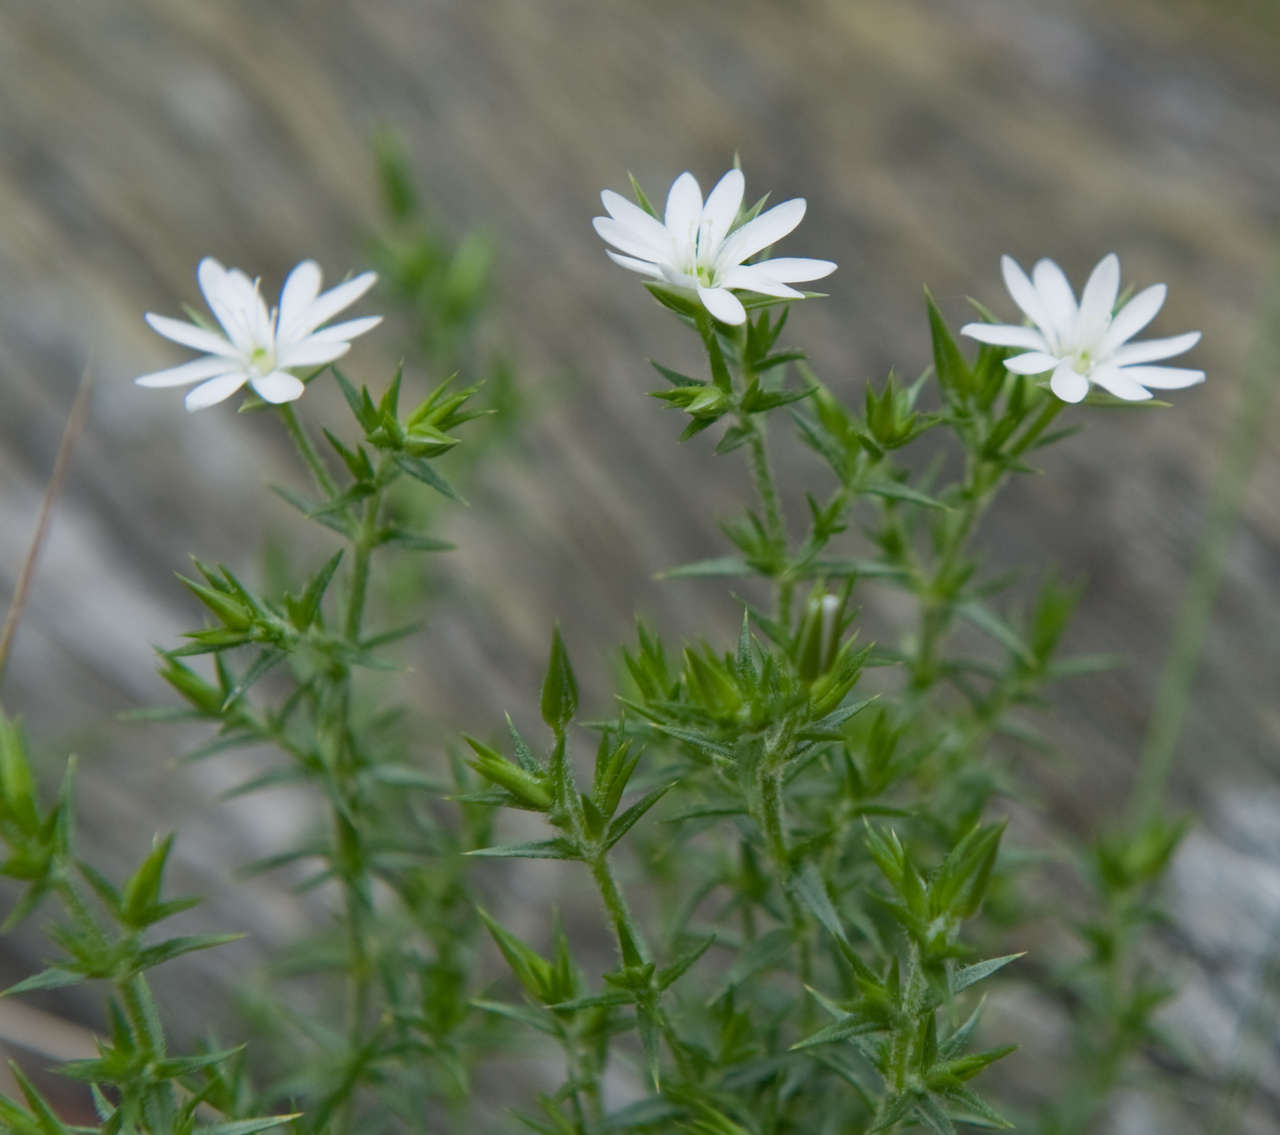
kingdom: Plantae
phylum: Tracheophyta
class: Magnoliopsida
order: Caryophyllales
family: Caryophyllaceae
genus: Stellaria
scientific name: Stellaria pungens
